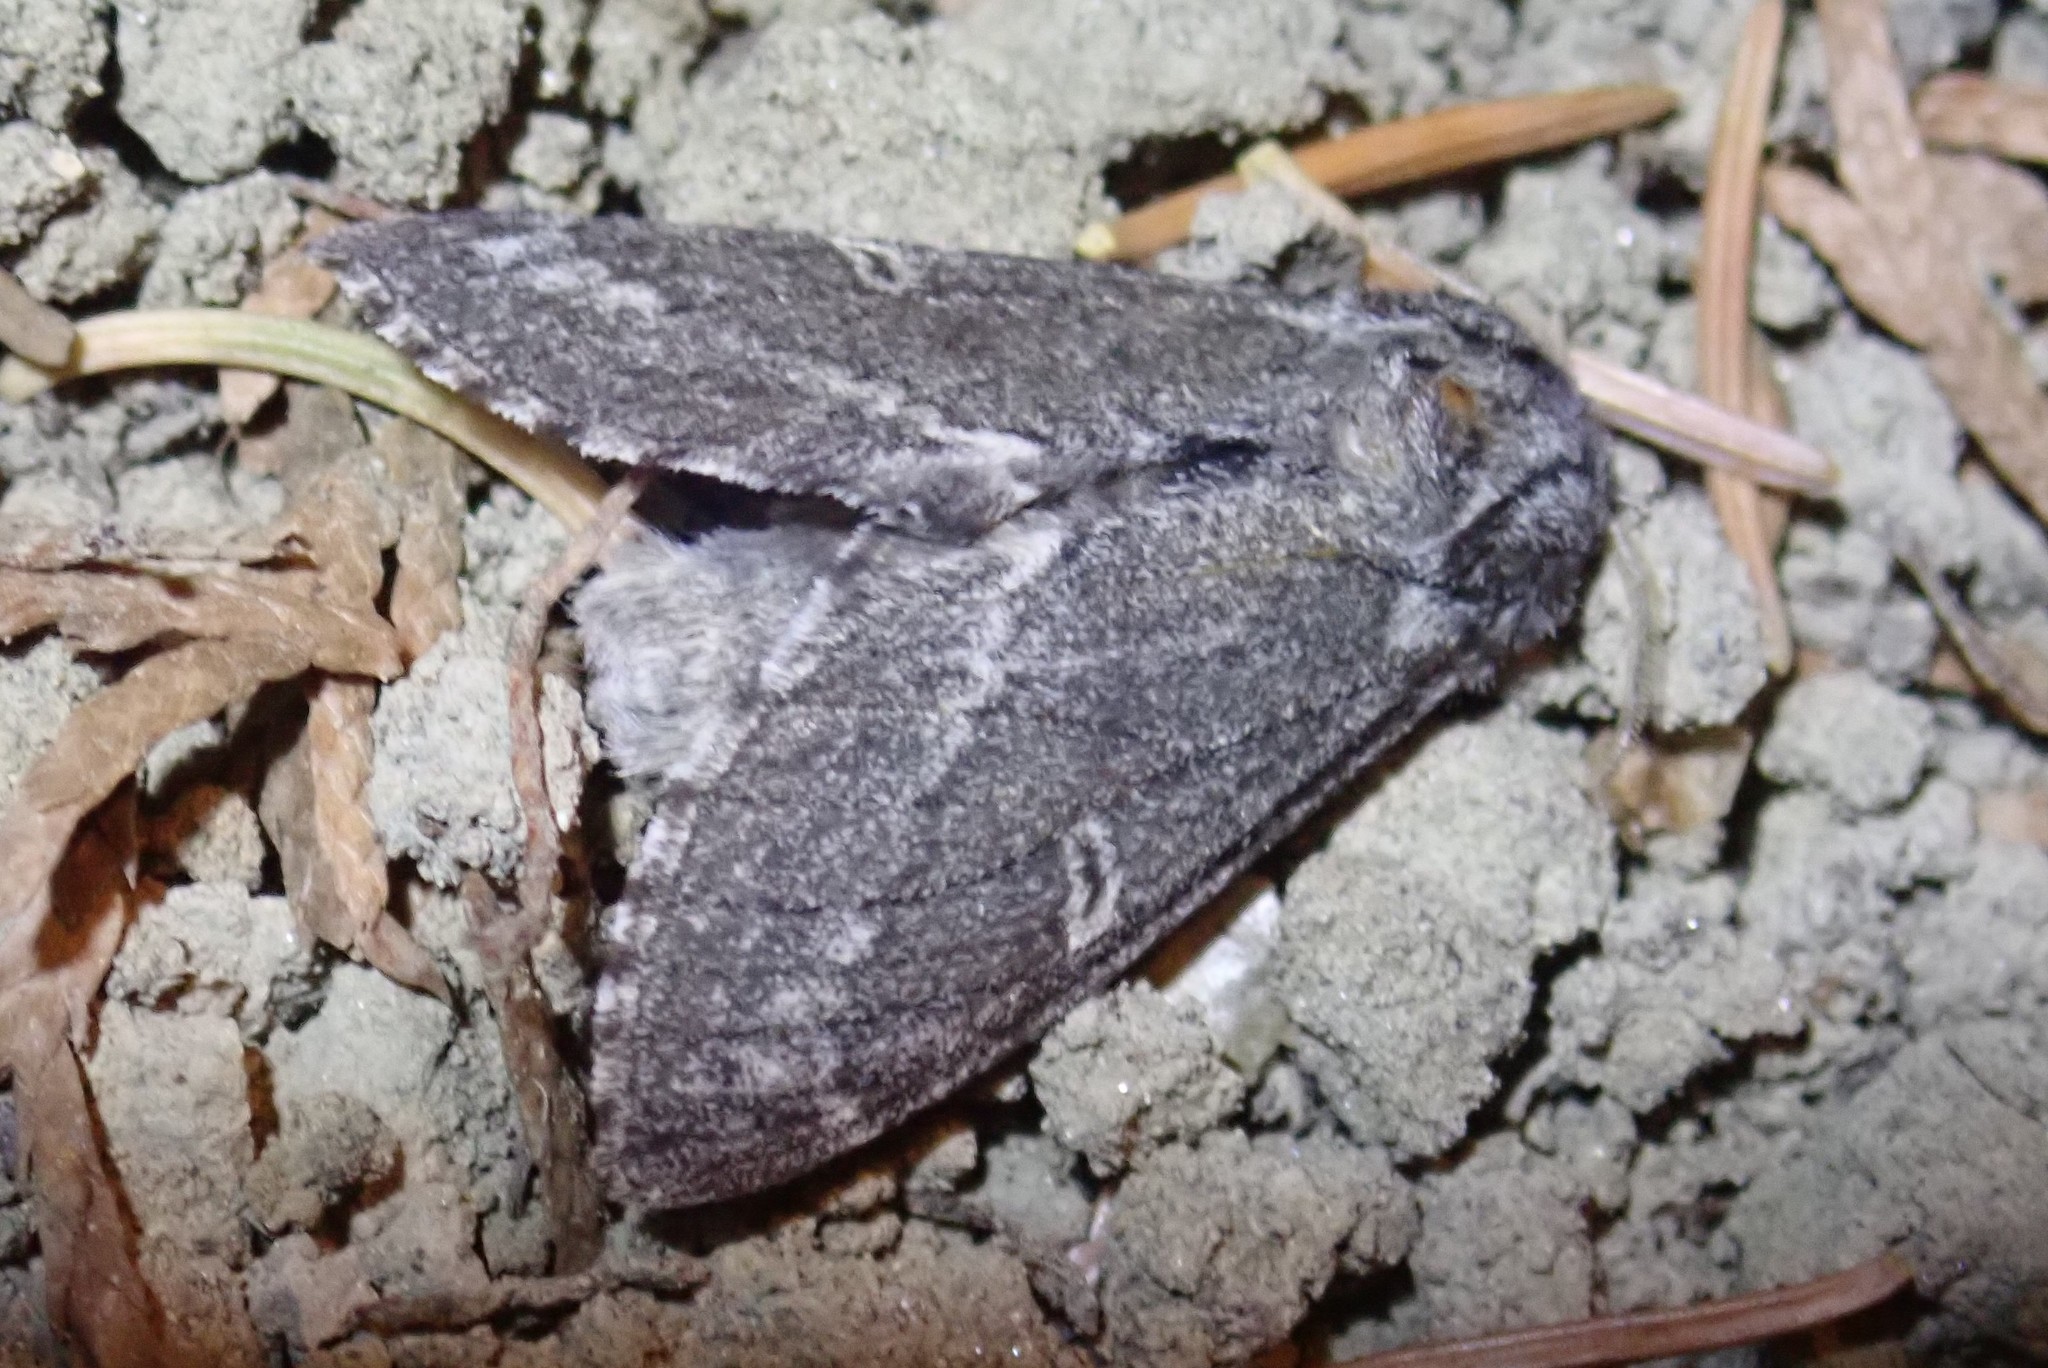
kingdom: Animalia
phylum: Arthropoda
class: Insecta
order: Lepidoptera
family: Notodontidae
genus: Notodonta
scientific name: Notodonta torva
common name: Large dark prominent
